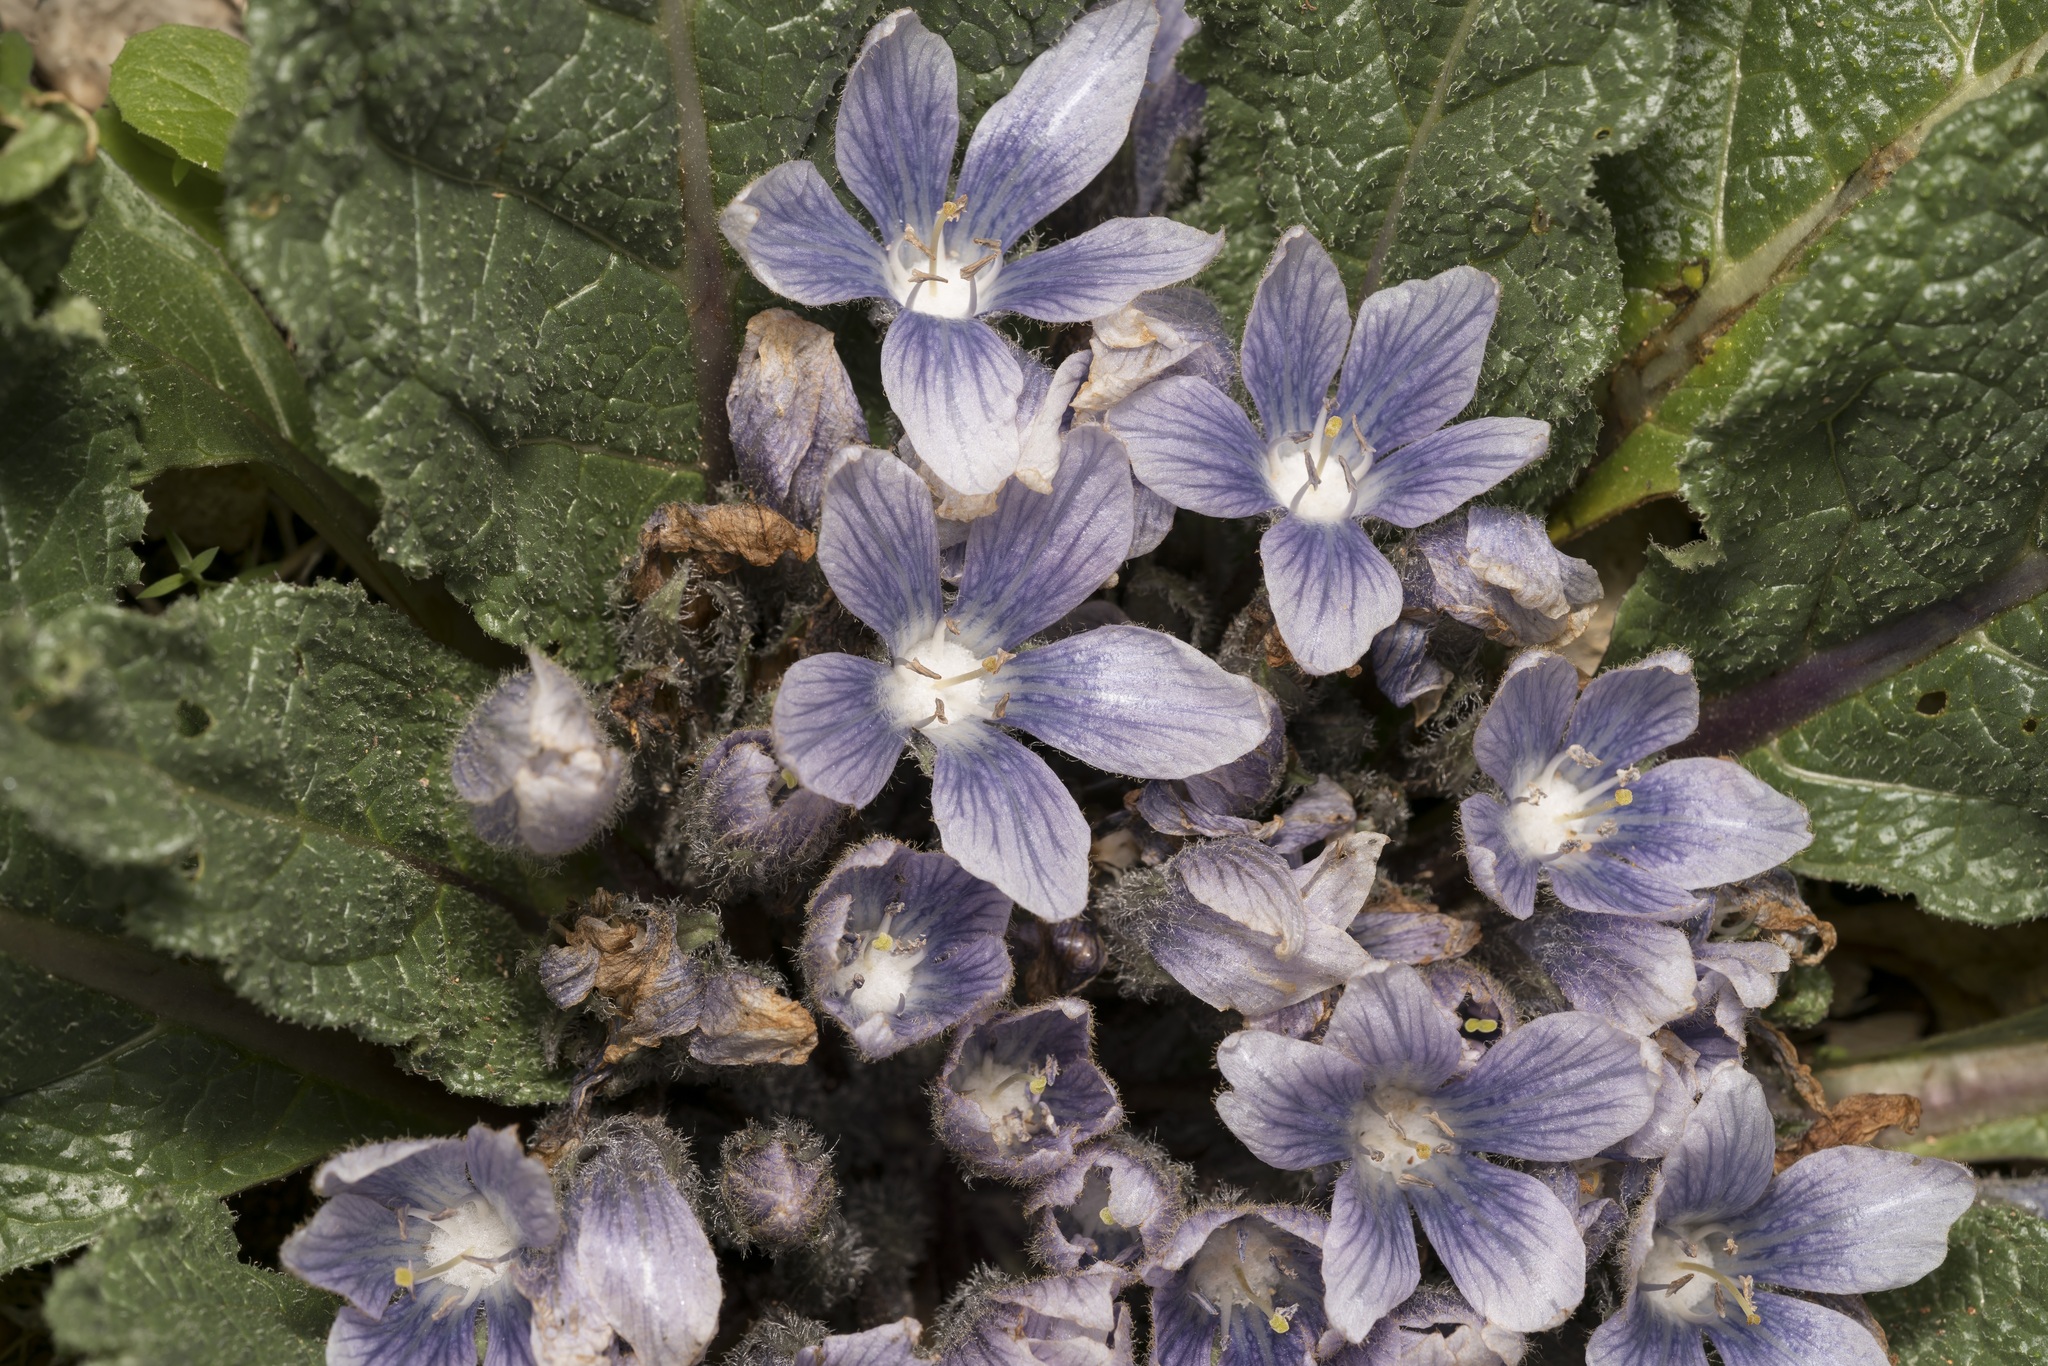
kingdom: Plantae
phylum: Tracheophyta
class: Magnoliopsida
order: Solanales
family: Solanaceae
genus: Mandragora
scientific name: Mandragora officinarum
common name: Mandrake
